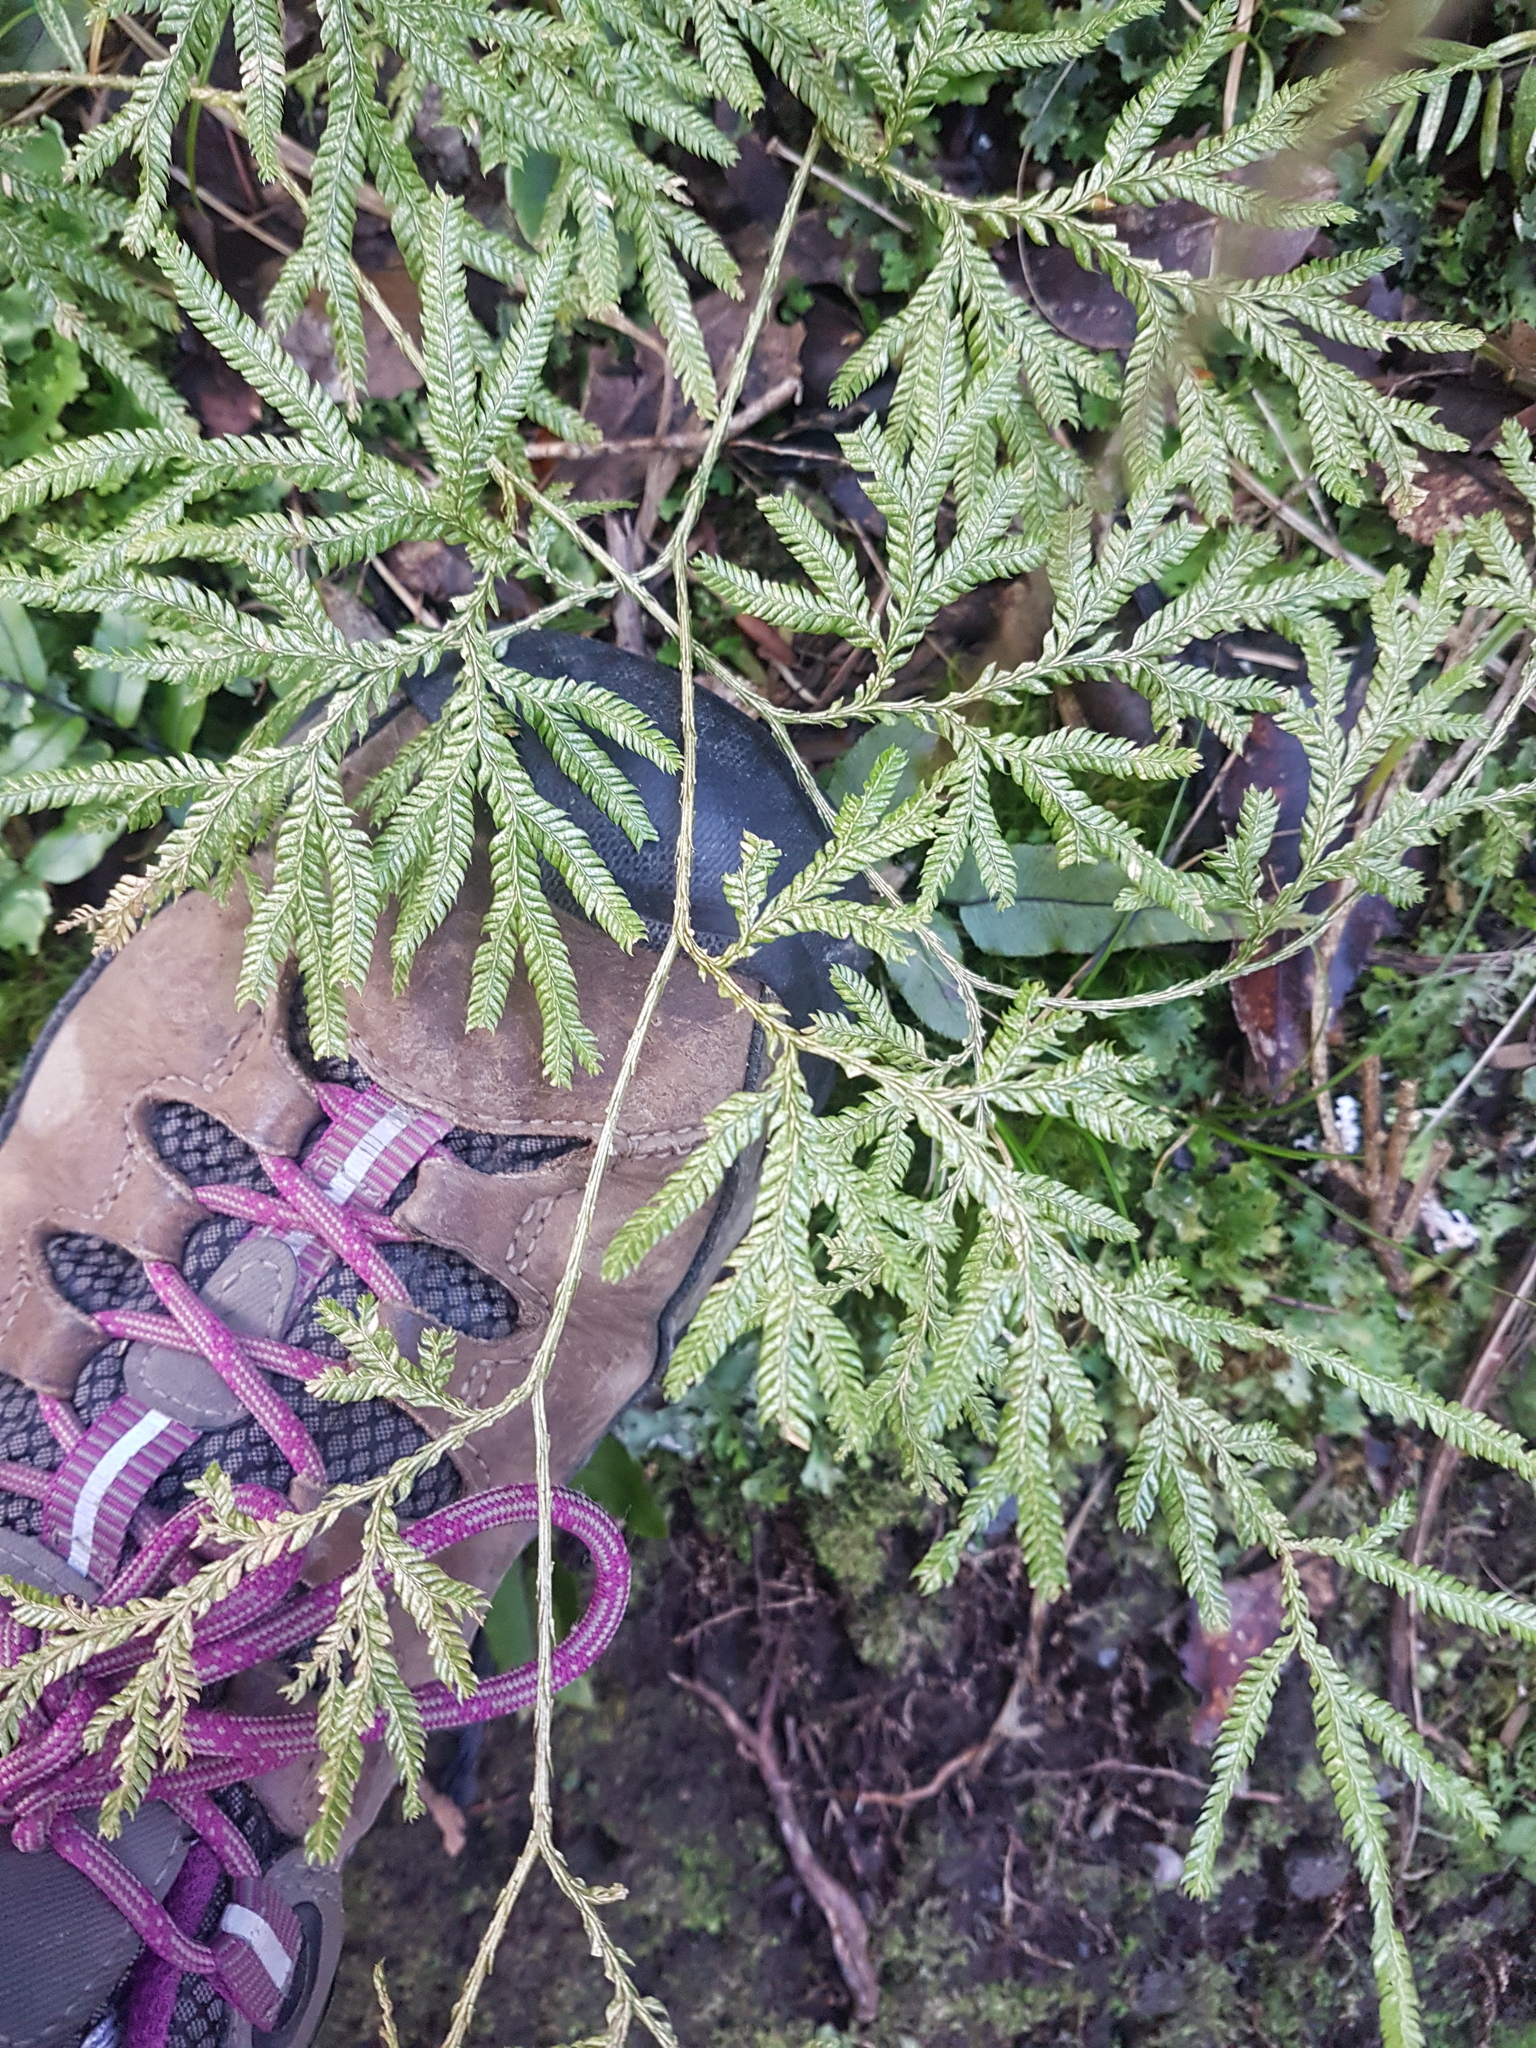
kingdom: Plantae
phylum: Tracheophyta
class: Lycopodiopsida
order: Lycopodiales
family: Lycopodiaceae
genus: Lycopodium
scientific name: Lycopodium volubile
